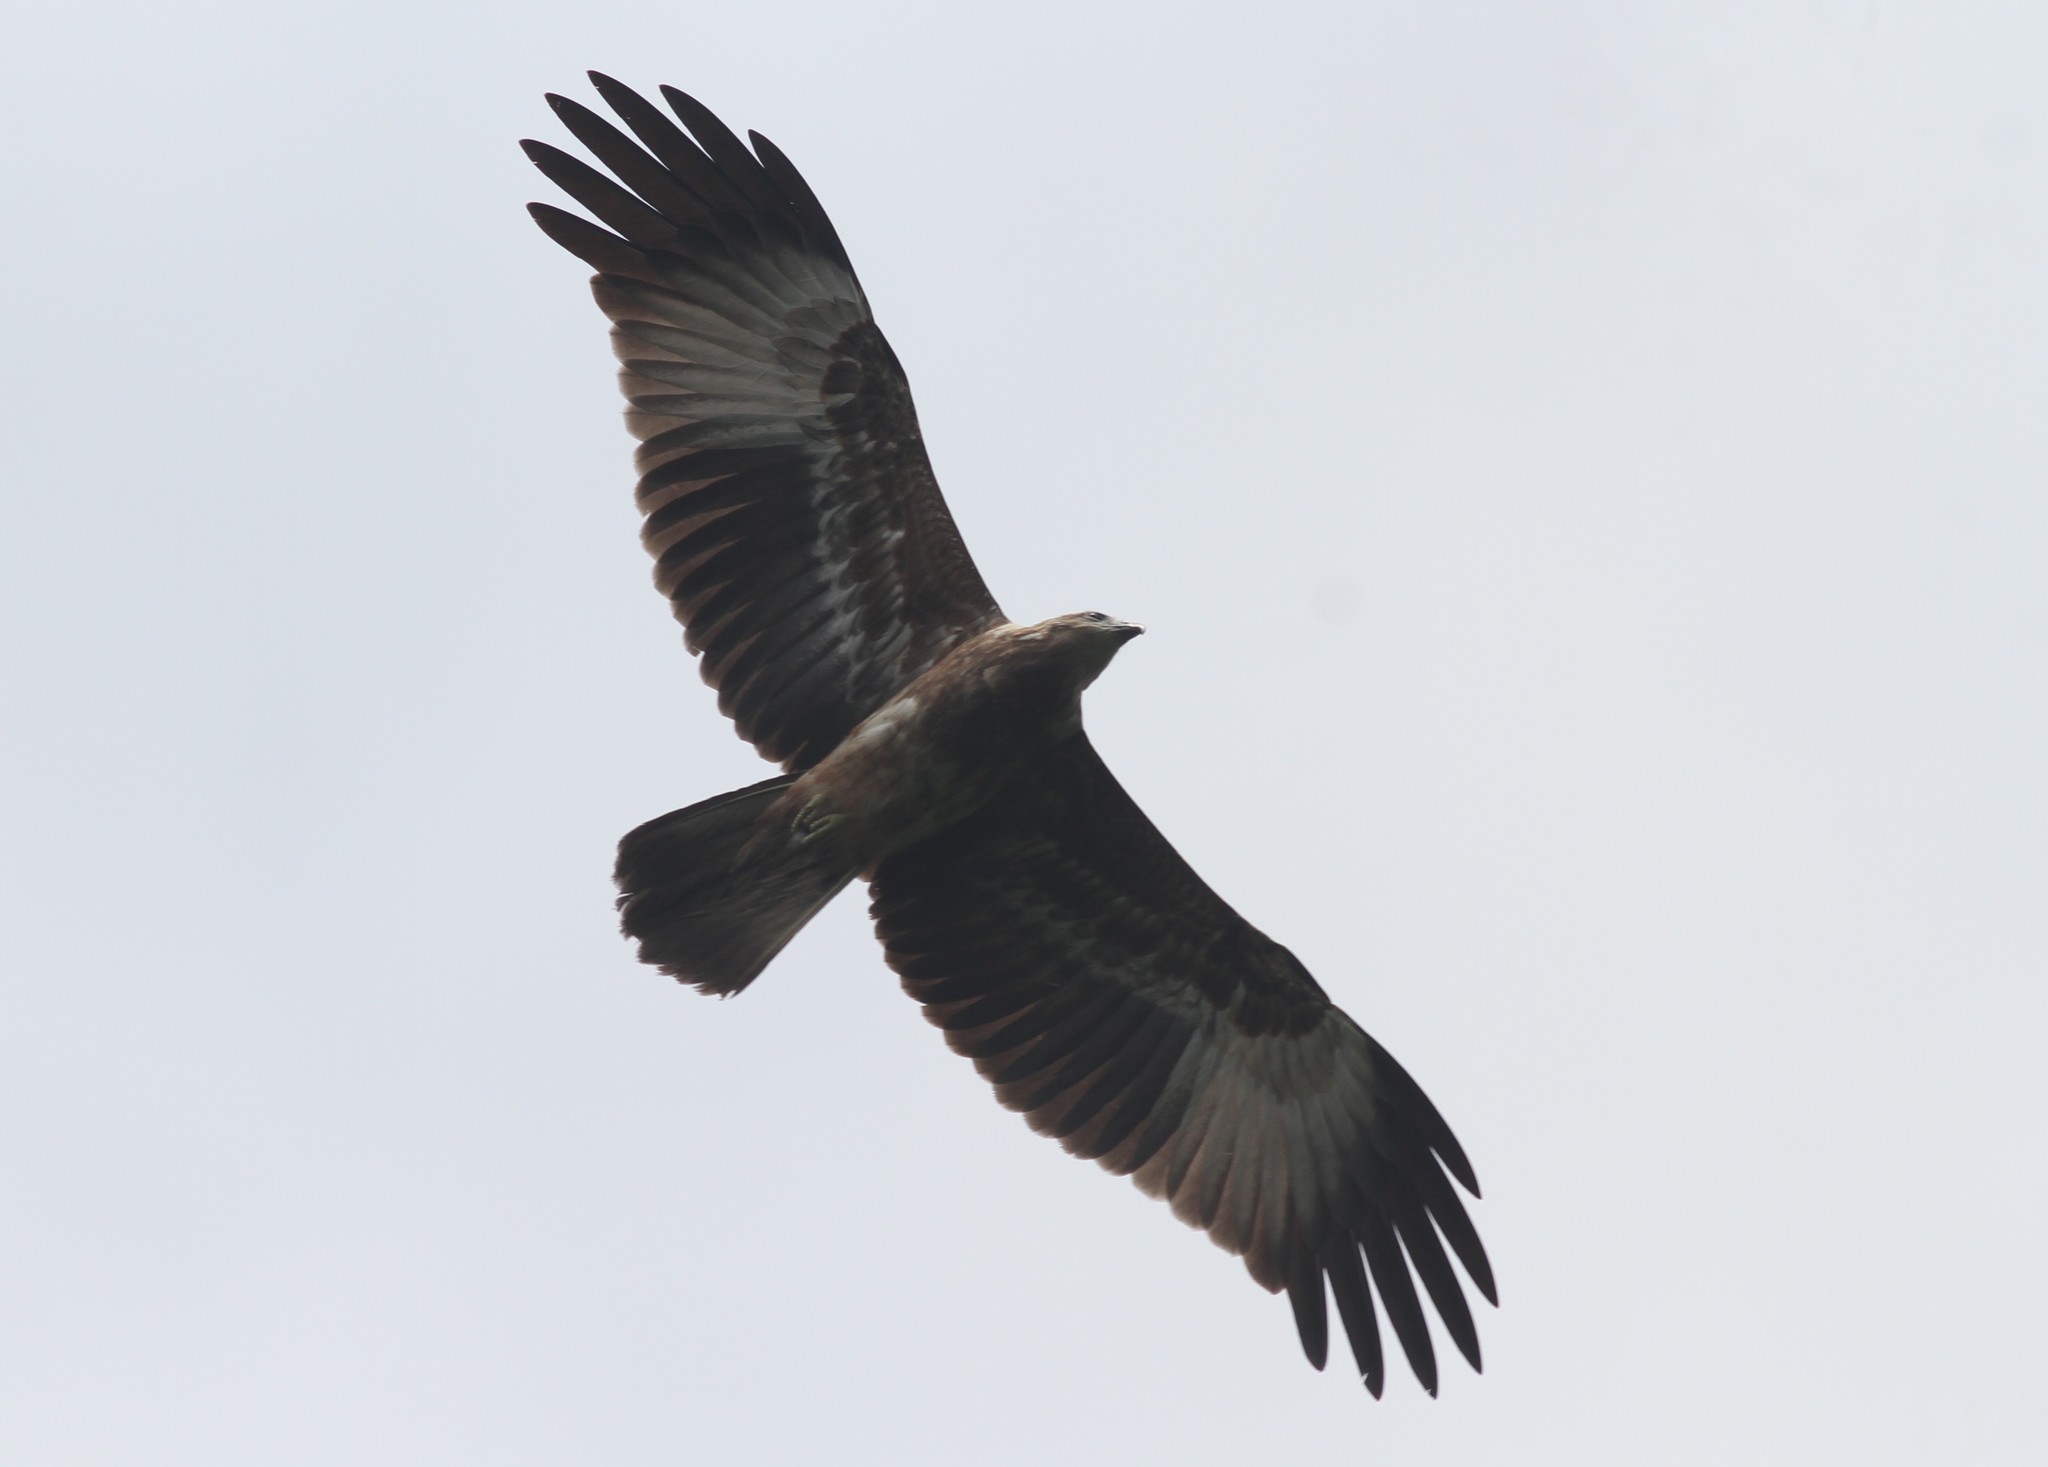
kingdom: Animalia
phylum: Chordata
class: Aves
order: Accipitriformes
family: Accipitridae
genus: Haliastur
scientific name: Haliastur indus
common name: Brahminy kite
